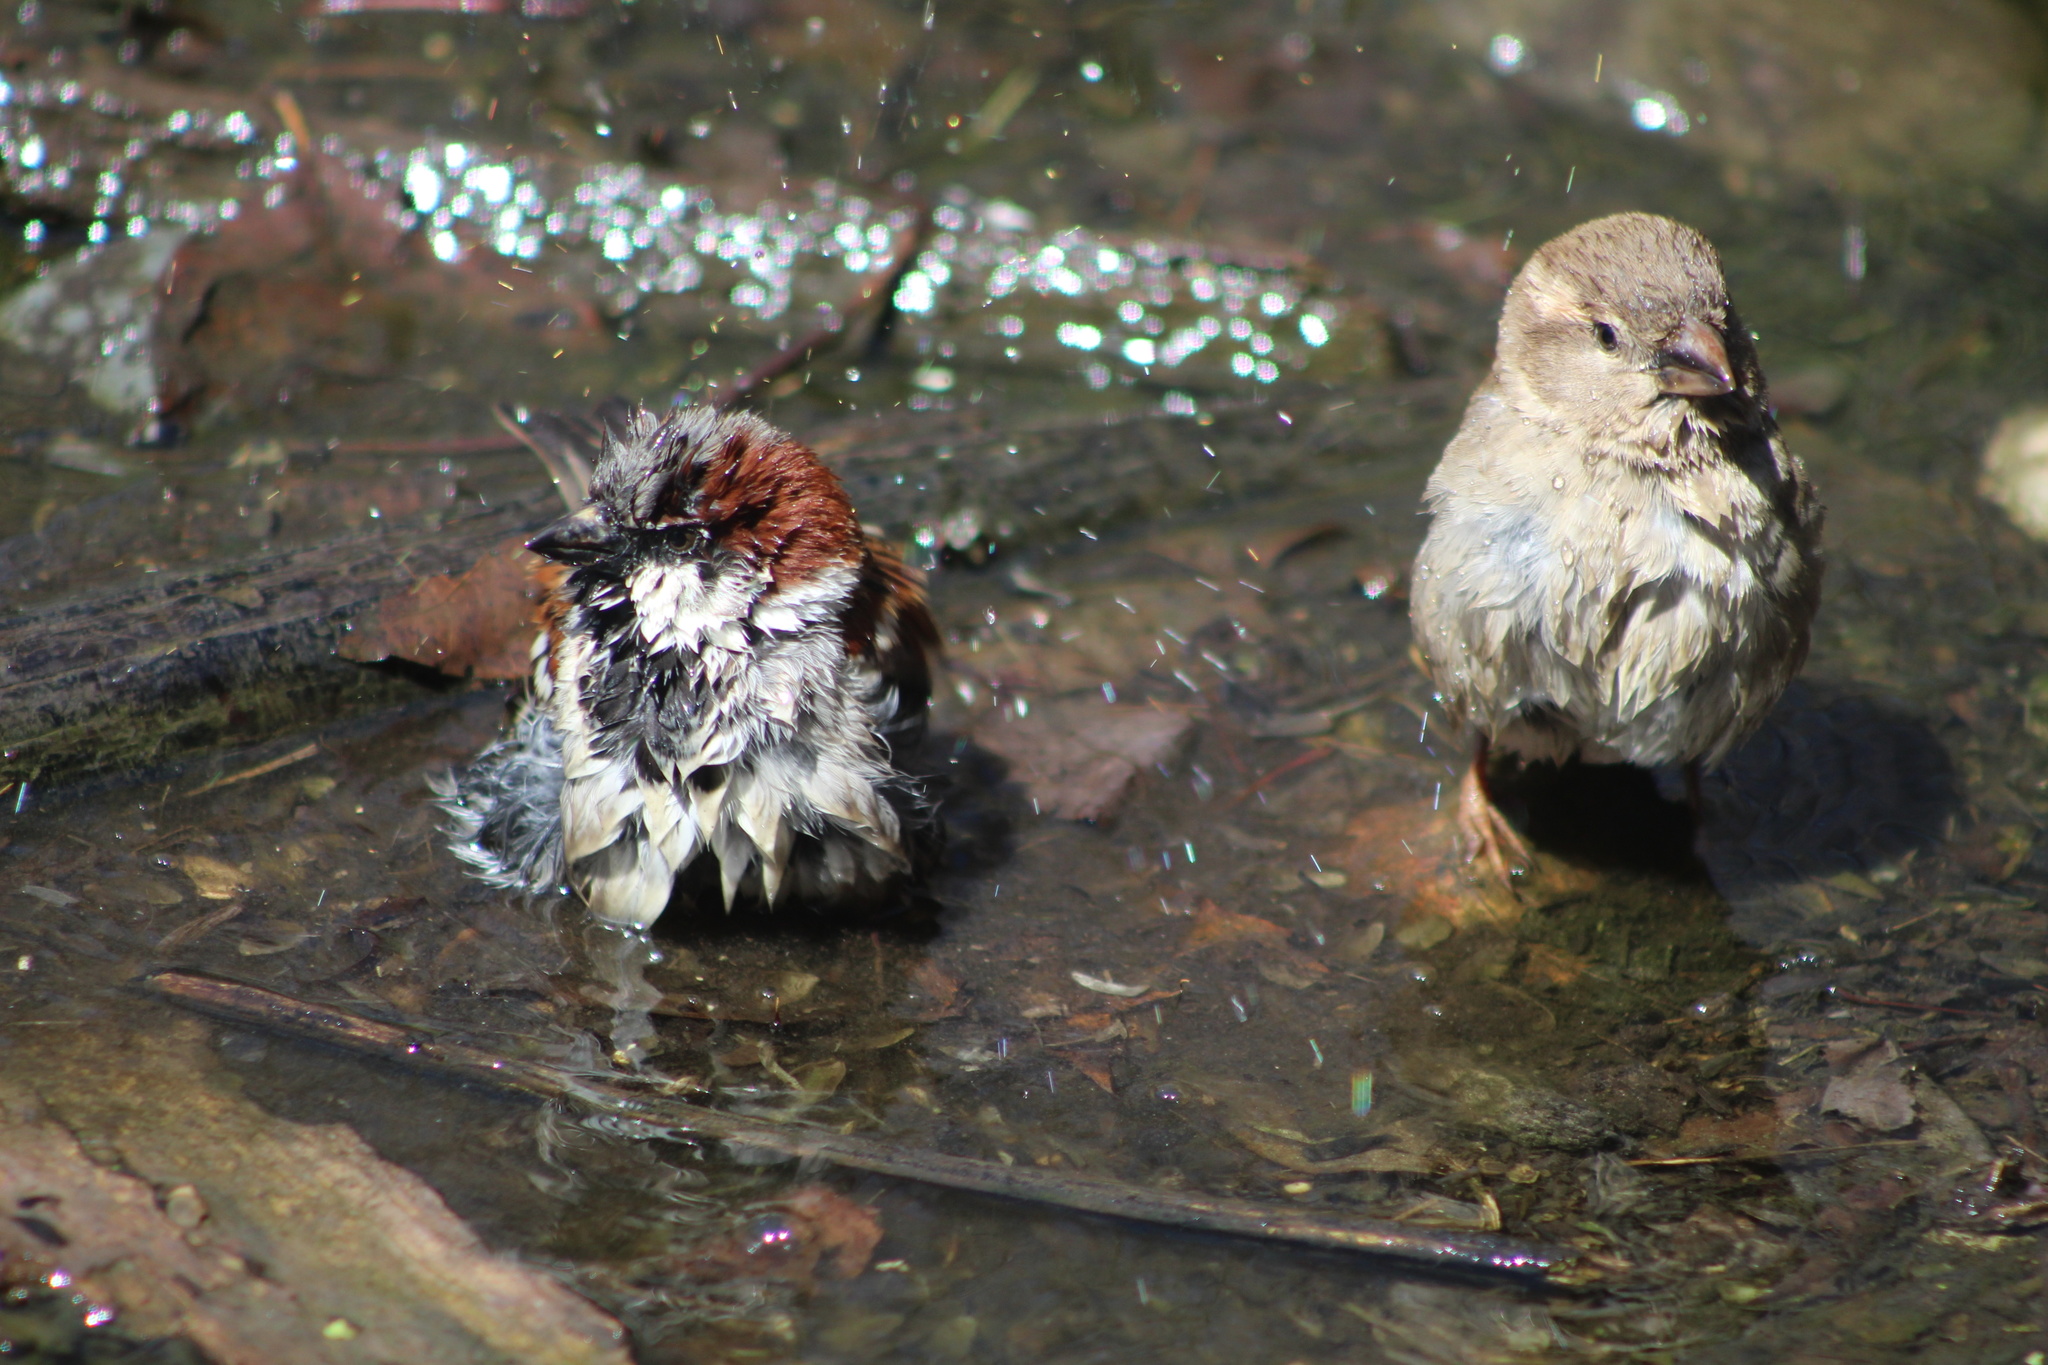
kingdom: Animalia
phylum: Chordata
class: Aves
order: Passeriformes
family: Passeridae
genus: Passer
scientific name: Passer domesticus
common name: House sparrow
